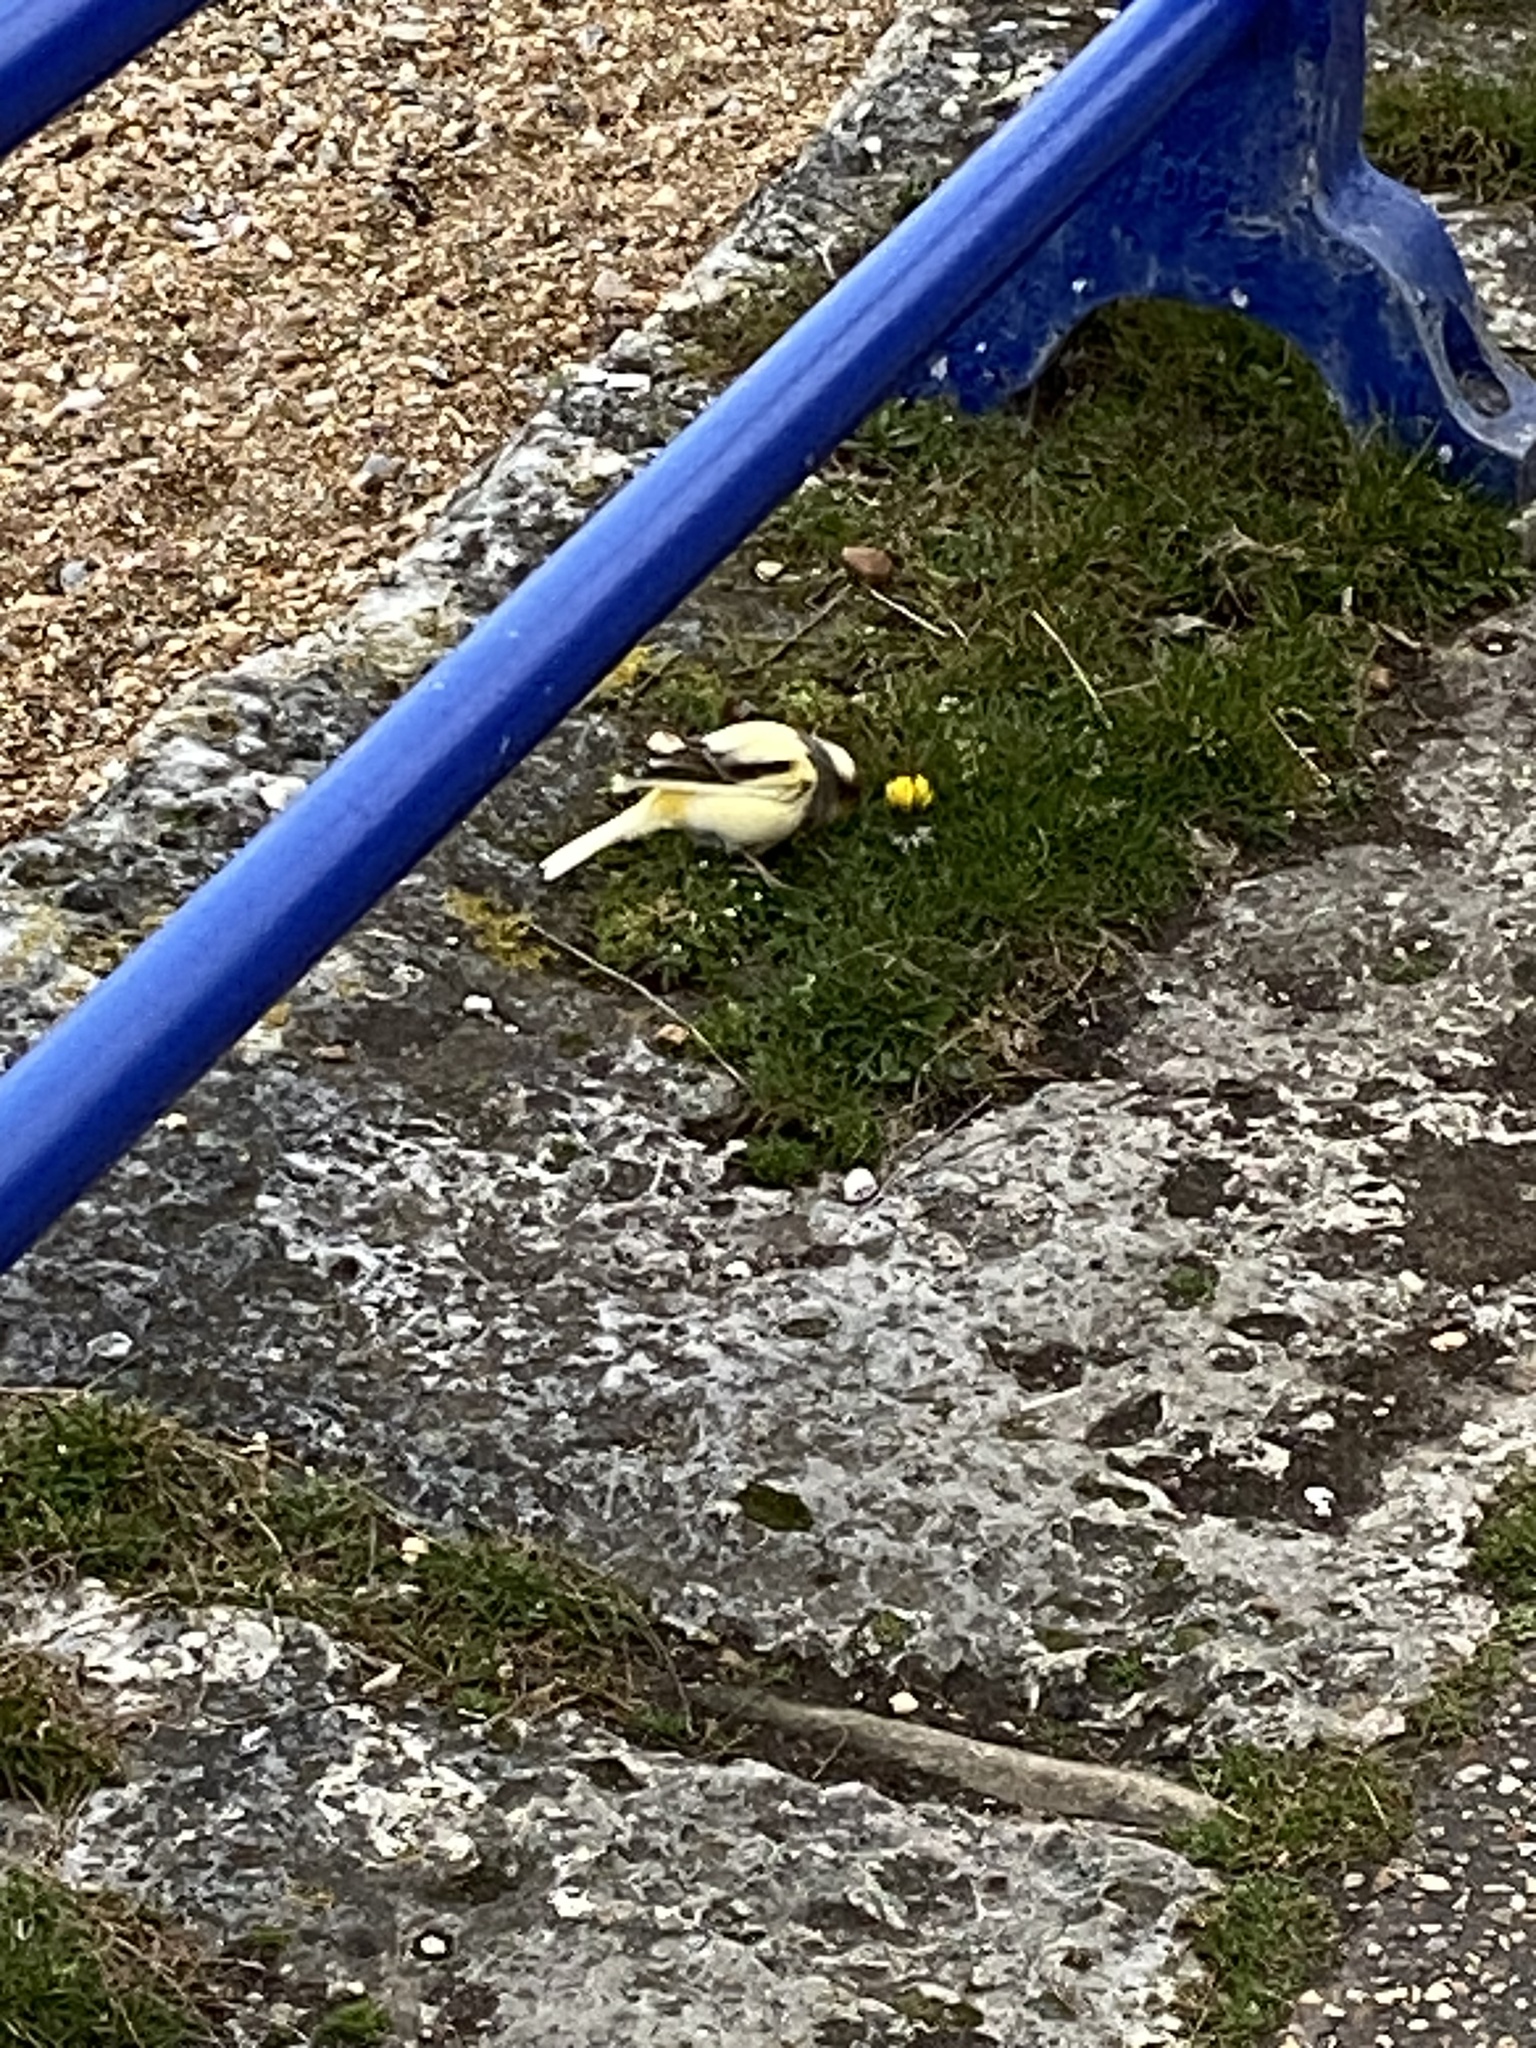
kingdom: Animalia
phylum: Chordata
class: Aves
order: Passeriformes
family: Fringillidae
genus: Serinus
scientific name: Serinus canaria
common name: Atlantic canary
